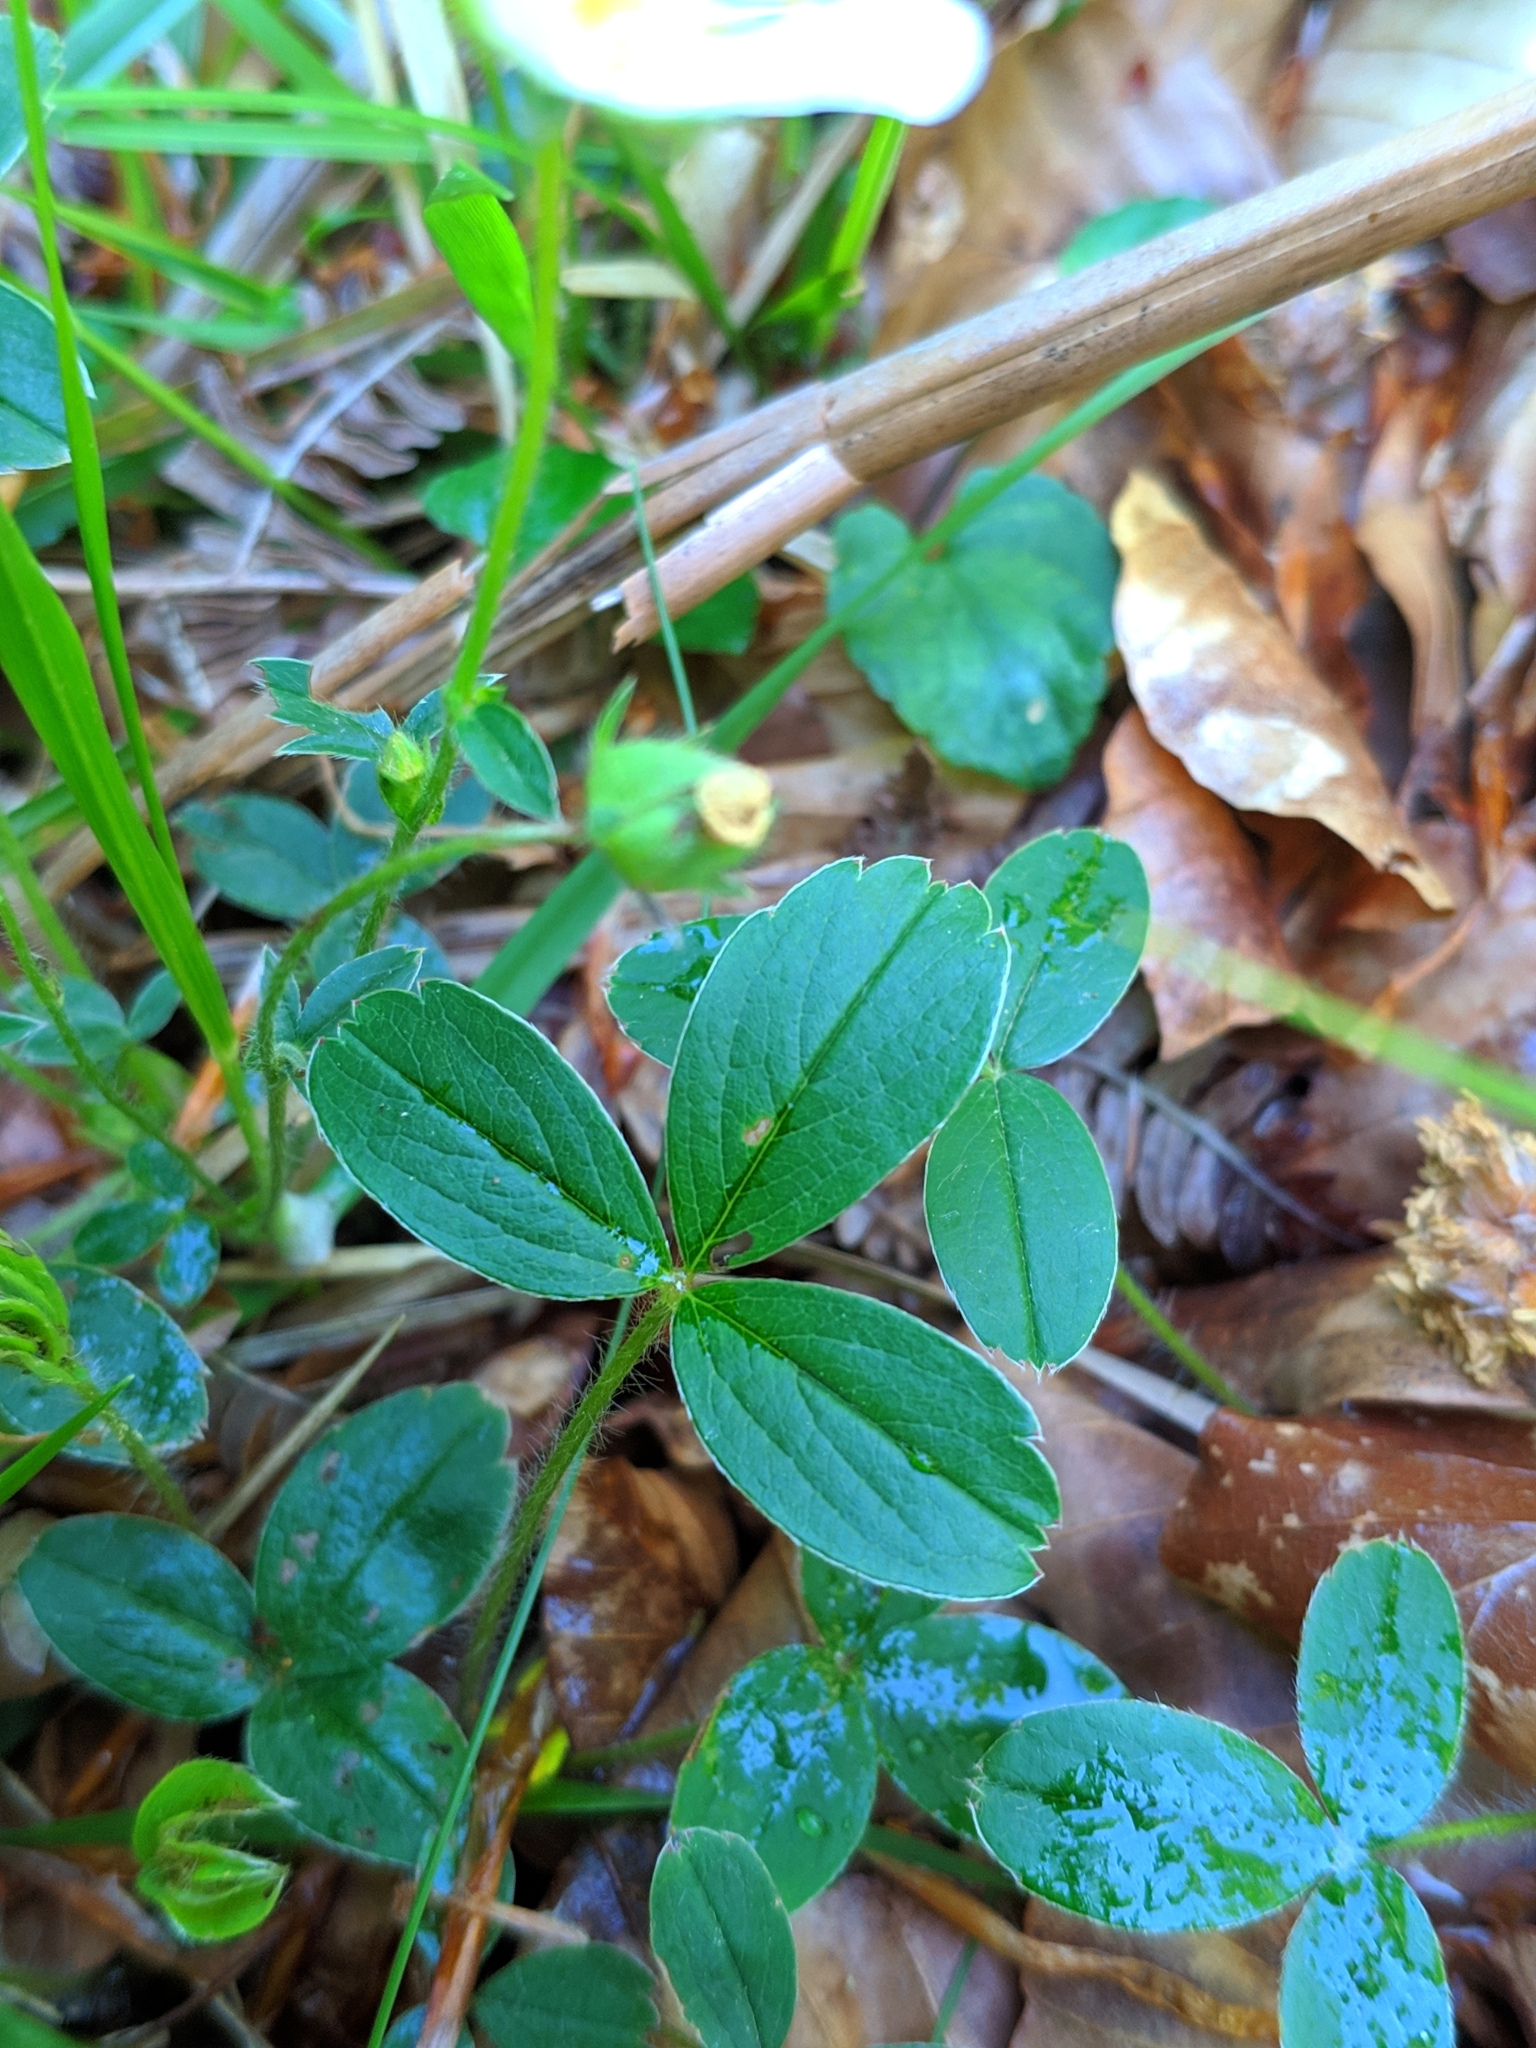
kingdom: Plantae
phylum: Tracheophyta
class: Magnoliopsida
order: Rosales
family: Rosaceae
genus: Potentilla
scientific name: Potentilla montana
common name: Mountain cinquefoil
